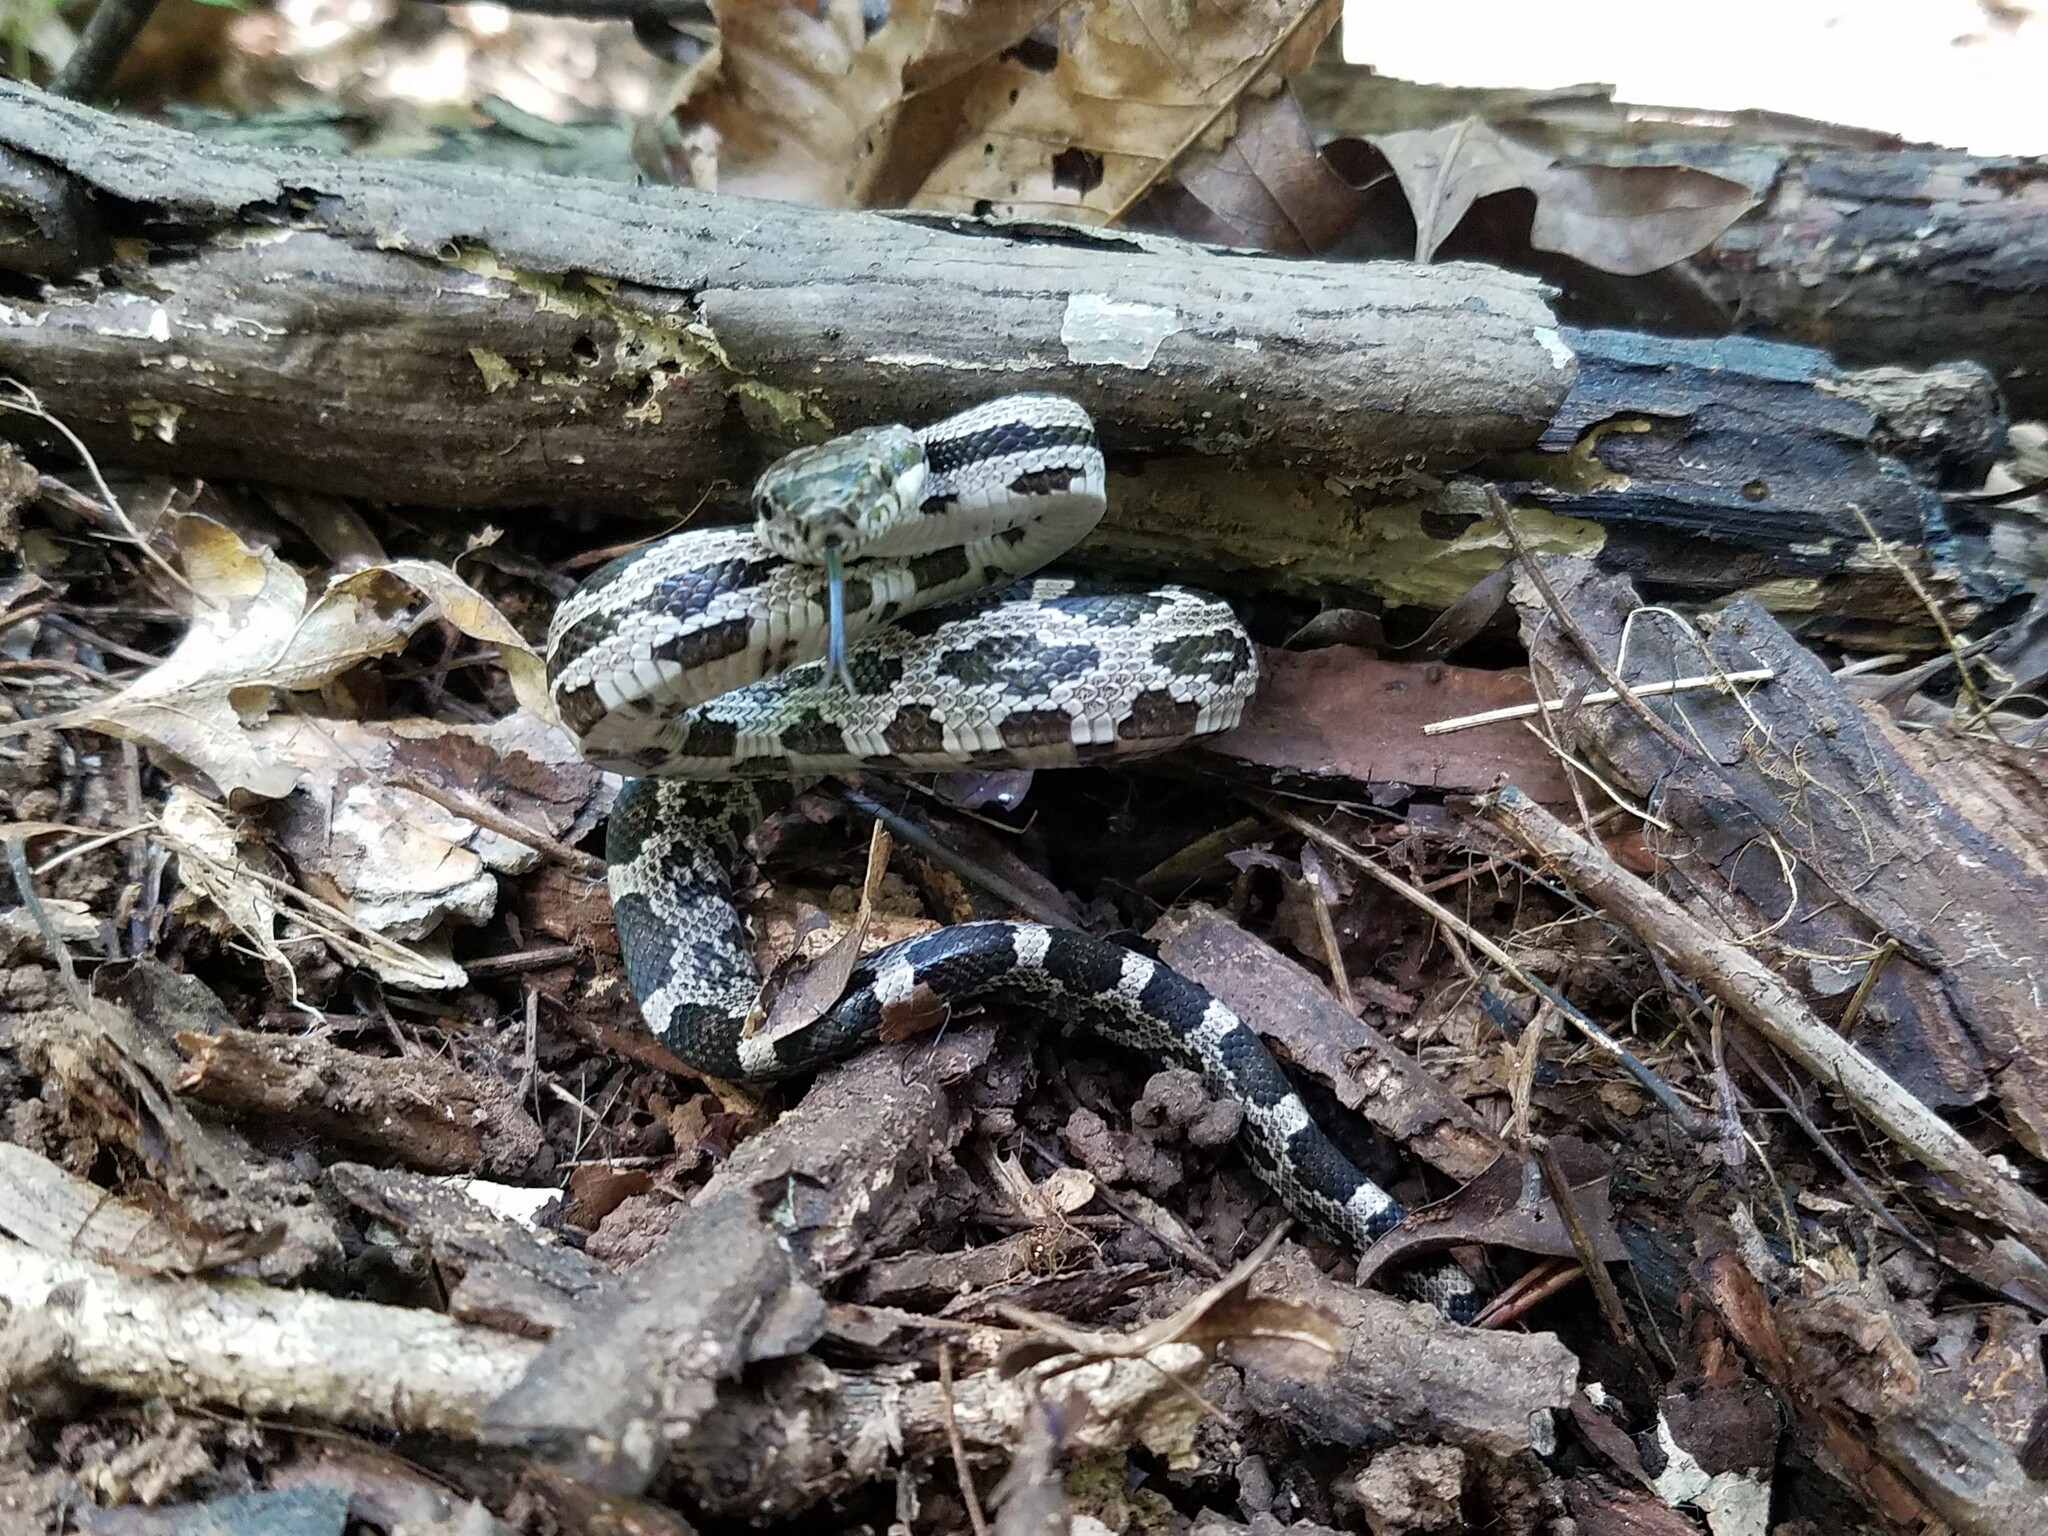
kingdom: Animalia
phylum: Chordata
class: Squamata
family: Colubridae
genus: Pantherophis
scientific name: Pantherophis
